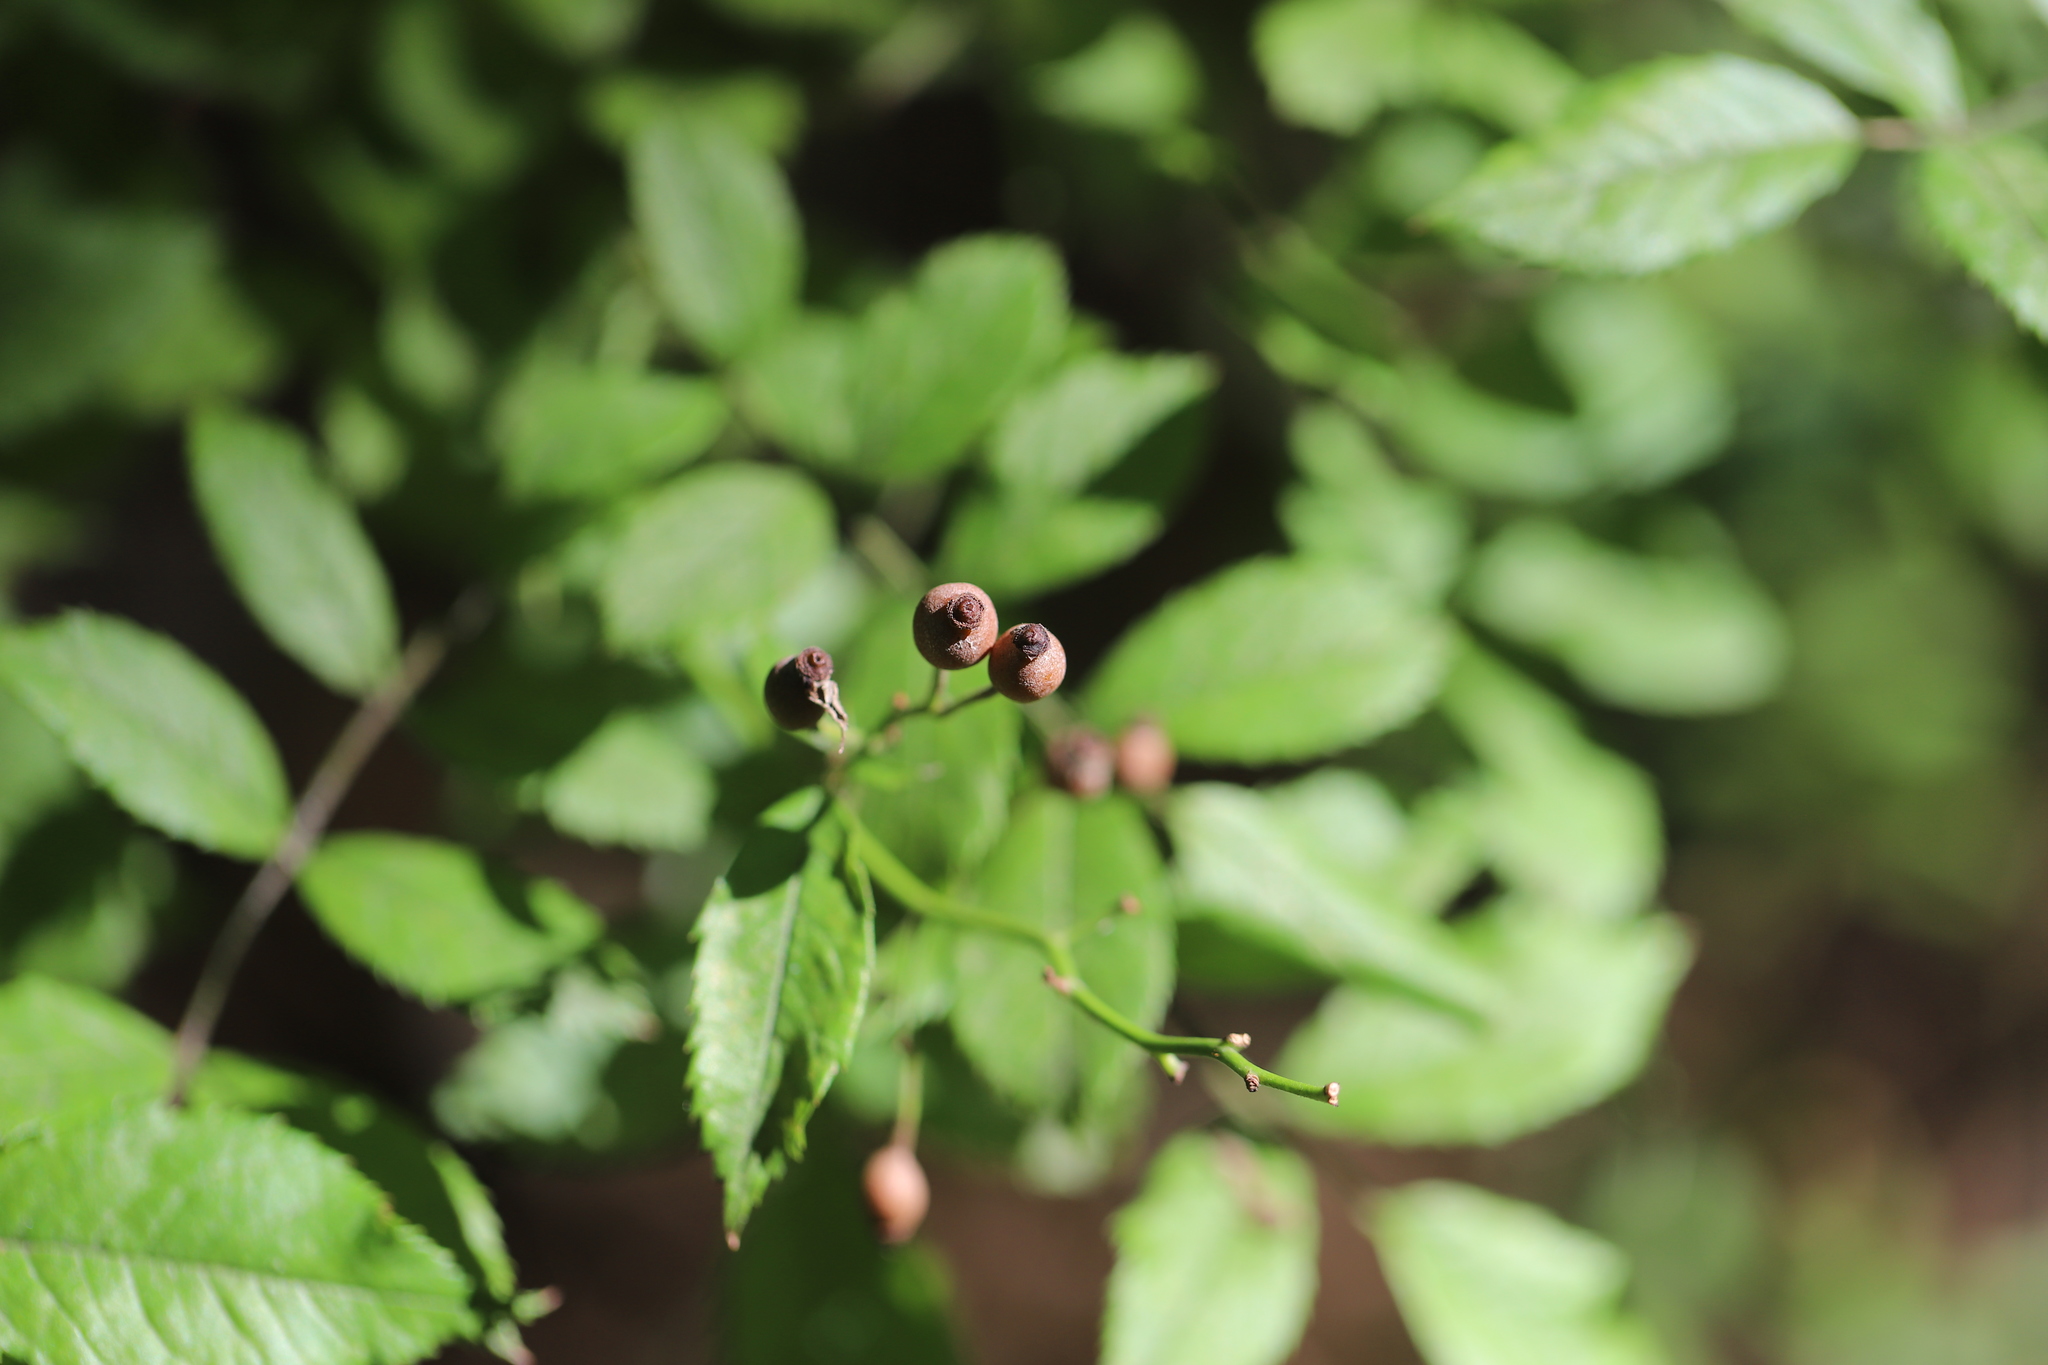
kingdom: Plantae
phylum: Tracheophyta
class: Magnoliopsida
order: Rosales
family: Rosaceae
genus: Rosa
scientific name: Rosa multiflora
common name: Multiflora rose
